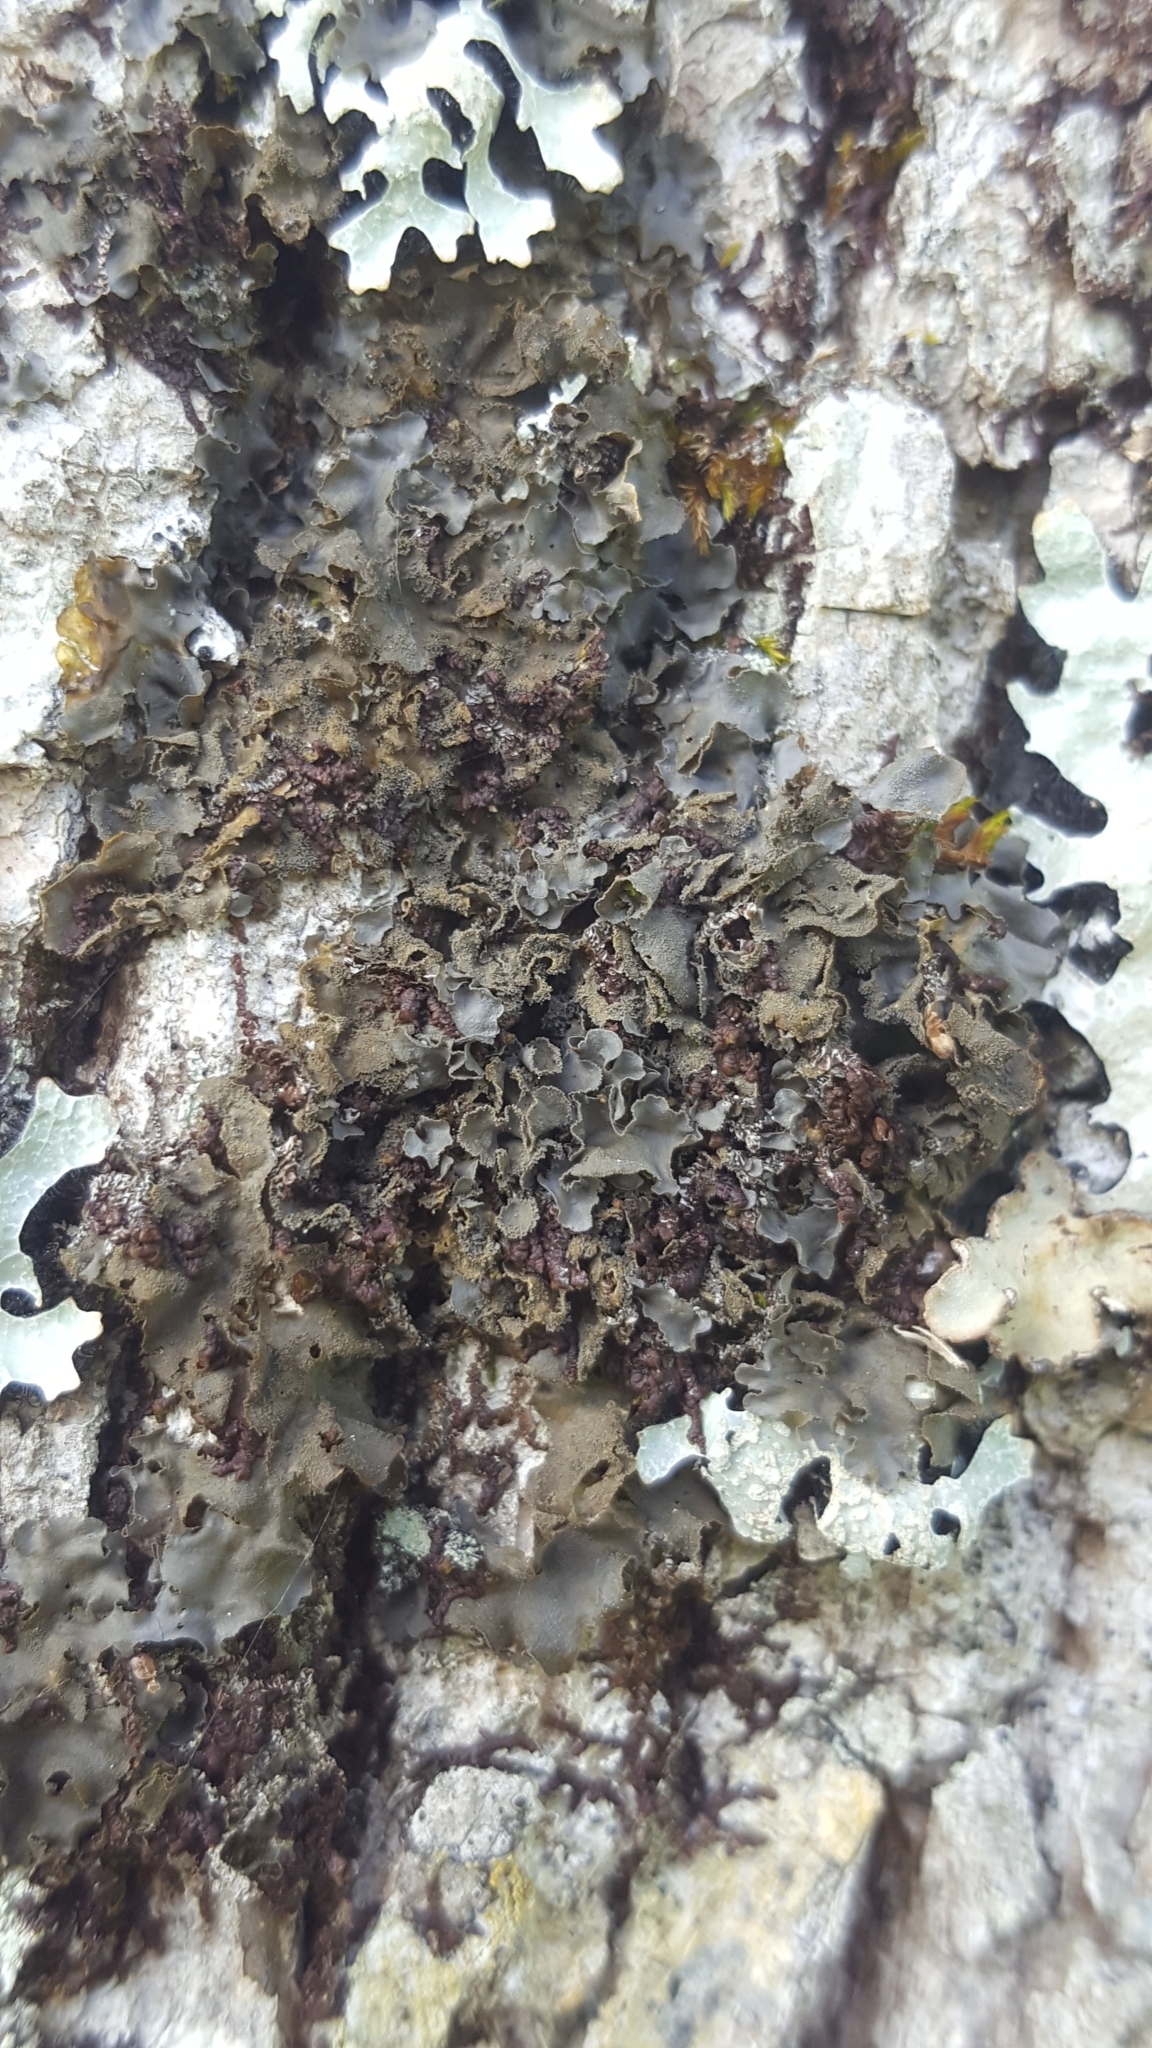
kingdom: Fungi
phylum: Ascomycota
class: Lecanoromycetes
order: Peltigerales
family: Collemataceae
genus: Leptogium
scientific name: Leptogium cyanescens
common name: Blue jellyskin
